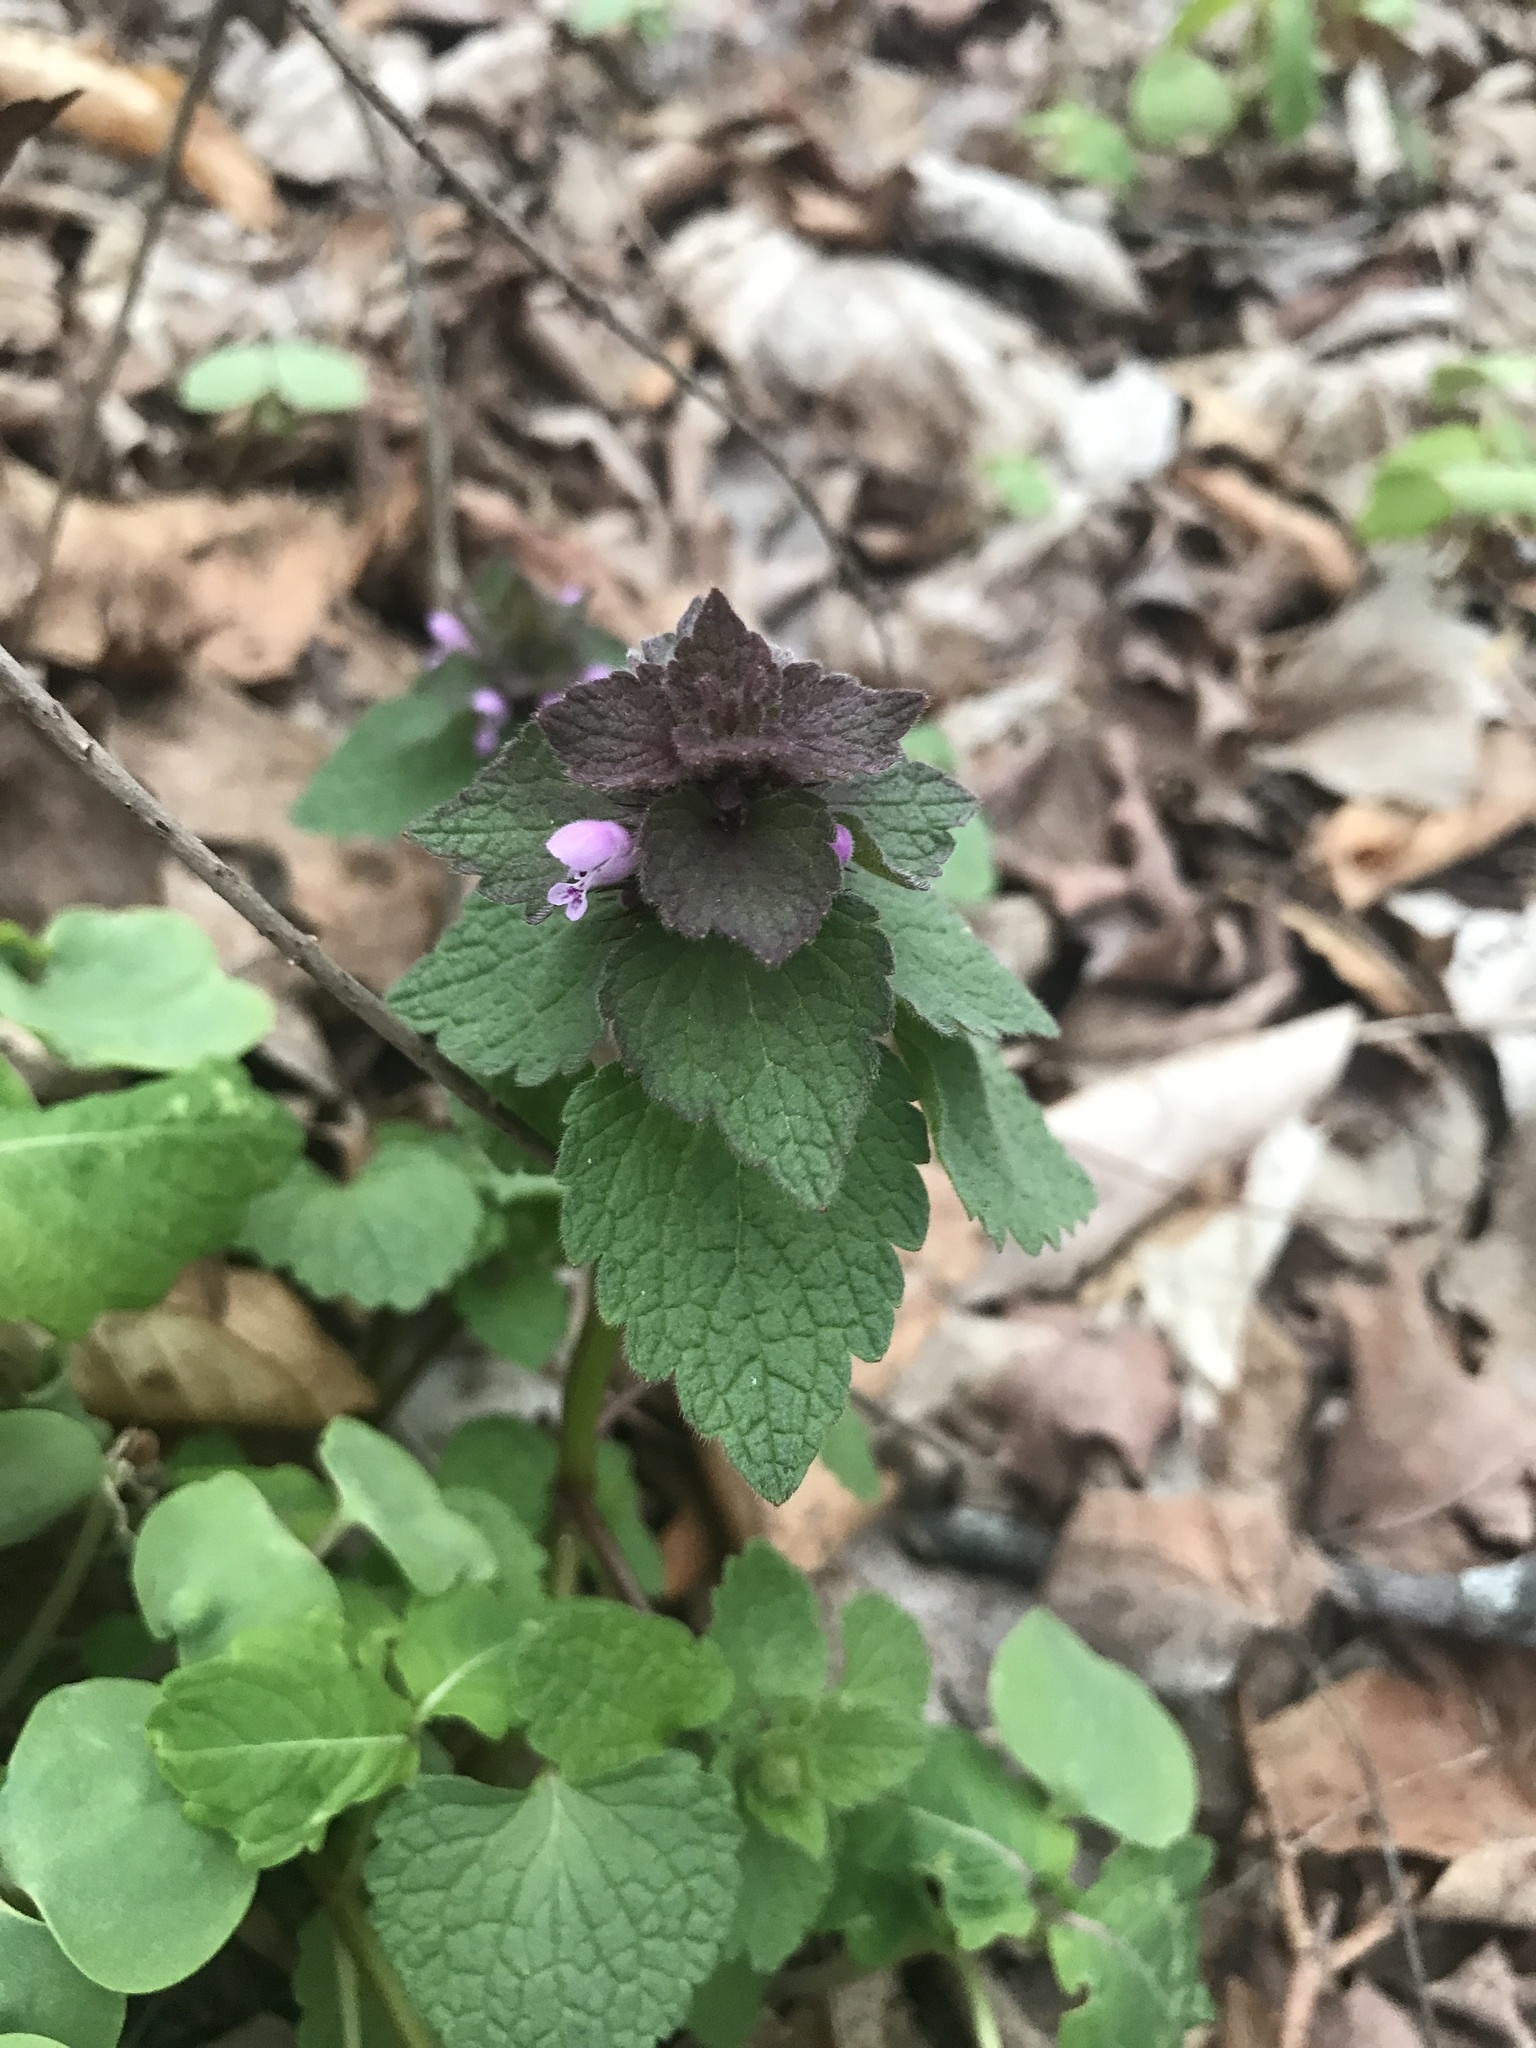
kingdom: Plantae
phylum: Tracheophyta
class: Magnoliopsida
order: Lamiales
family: Lamiaceae
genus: Lamium
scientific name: Lamium purpureum
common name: Red dead-nettle
